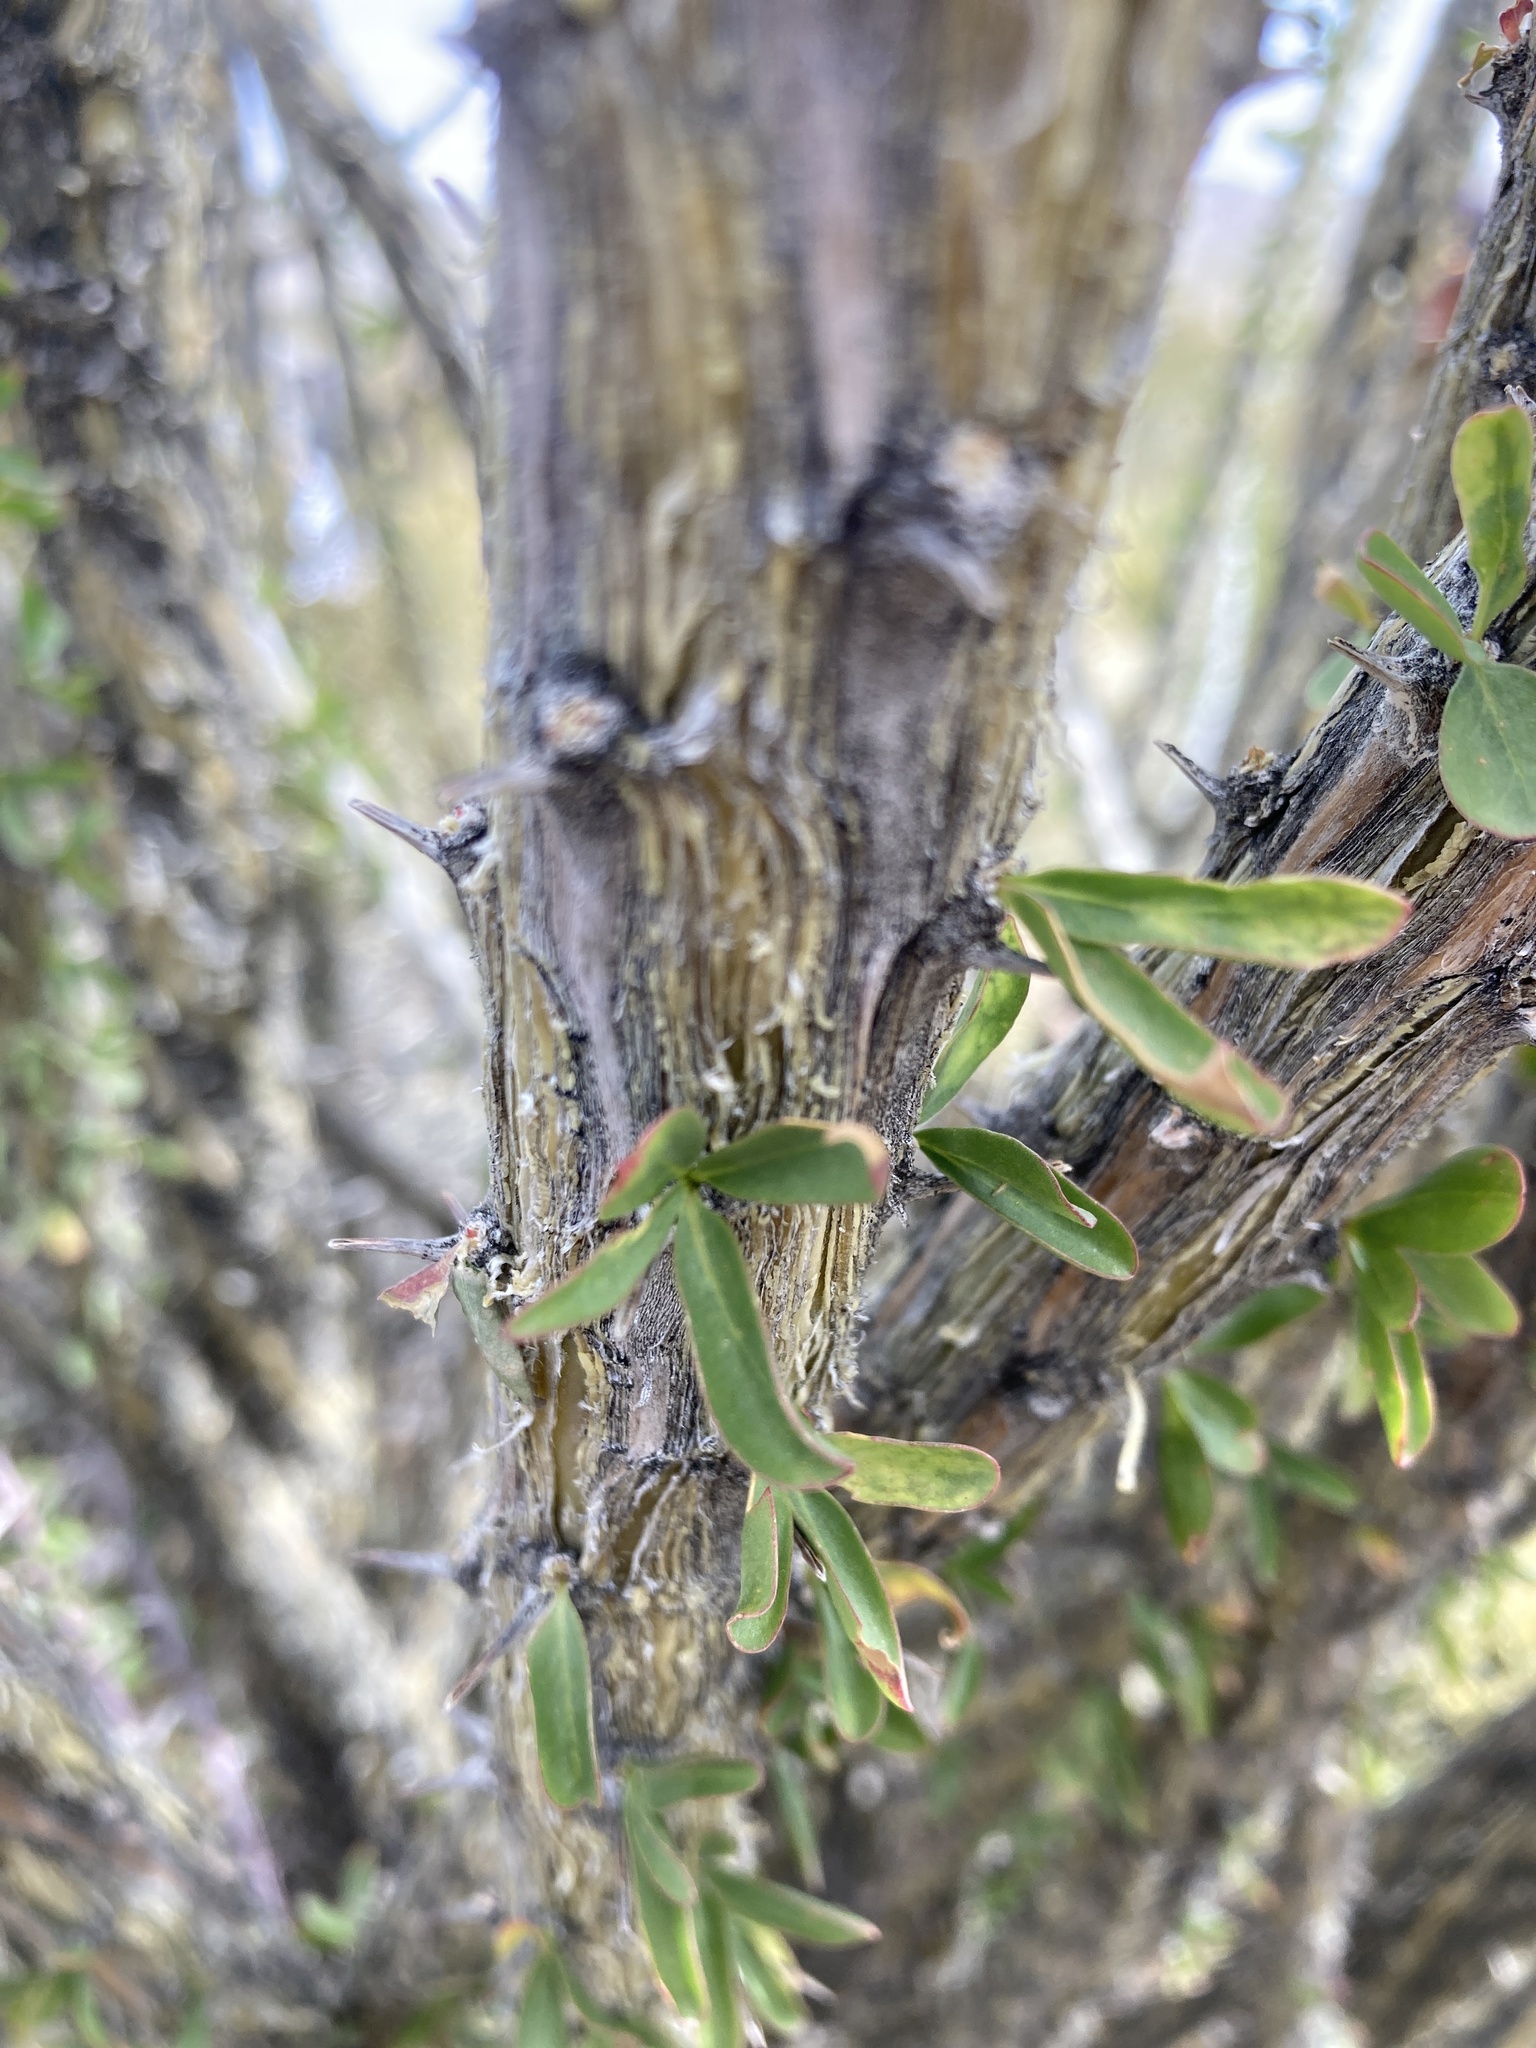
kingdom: Plantae
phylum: Tracheophyta
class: Magnoliopsida
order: Ericales
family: Fouquieriaceae
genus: Fouquieria
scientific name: Fouquieria splendens
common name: Vine-cactus
